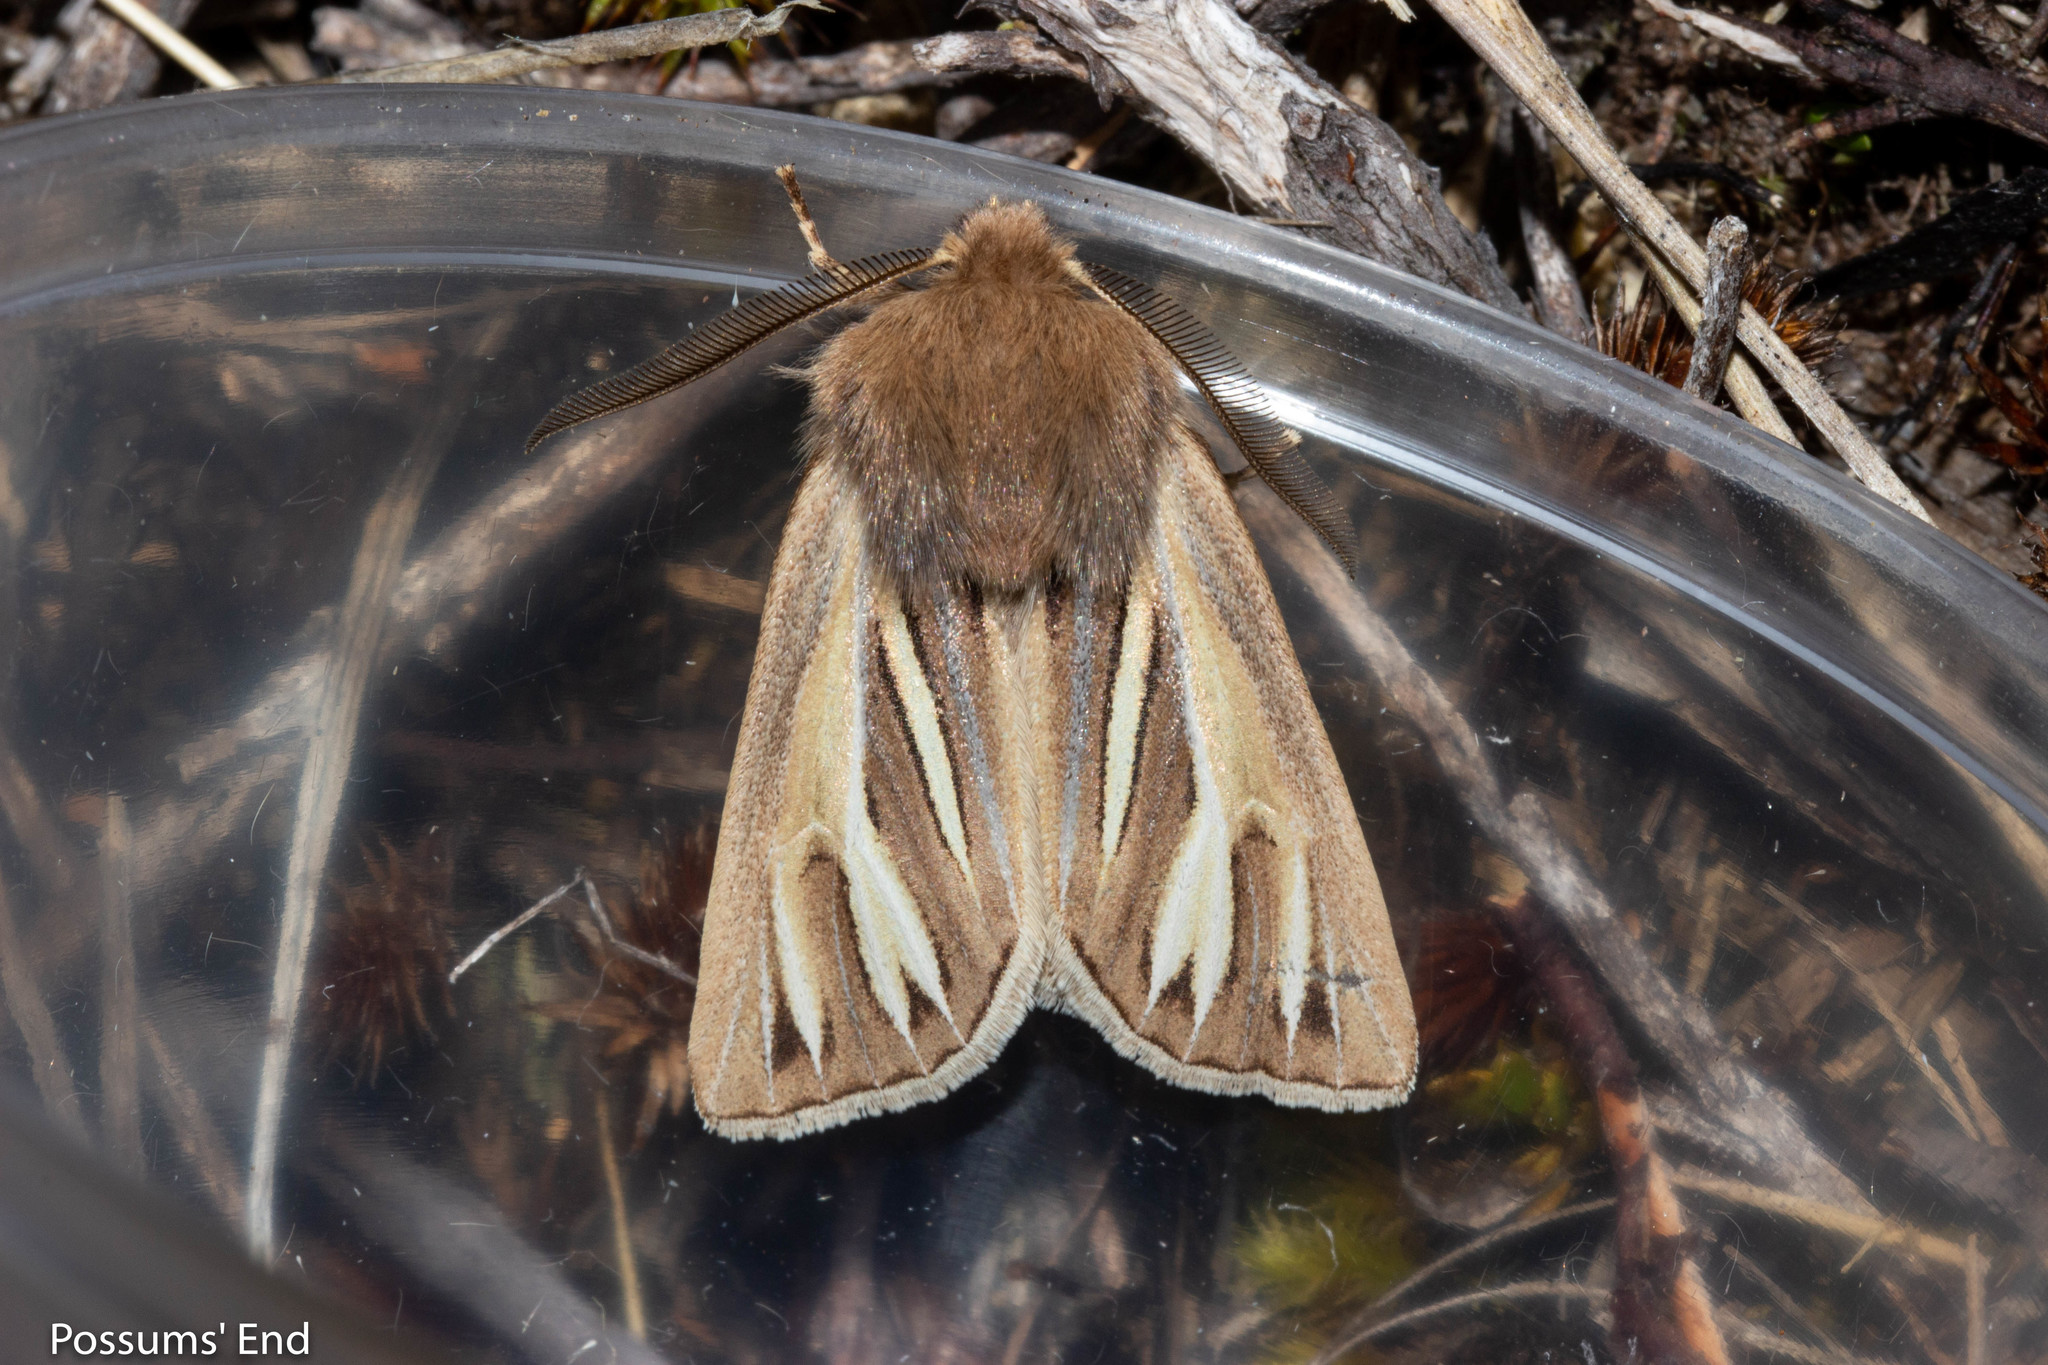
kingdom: Animalia
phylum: Arthropoda
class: Insecta
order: Lepidoptera
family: Noctuidae
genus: Ichneutica
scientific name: Ichneutica caraunias
